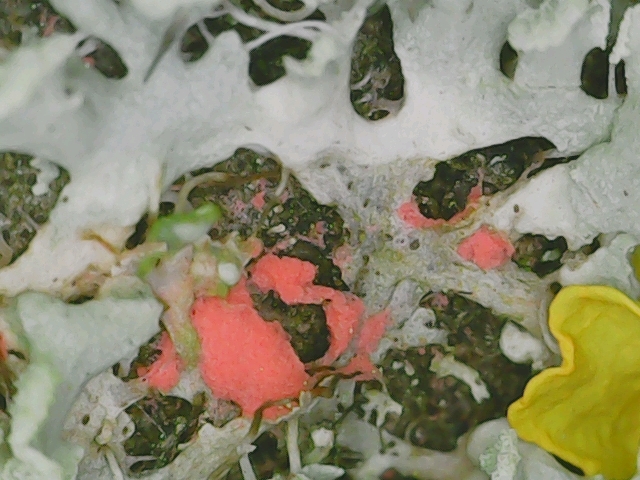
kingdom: Fungi
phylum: Ascomycota
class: Sordariomycetes
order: Hypocreales
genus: Illosporiopsis
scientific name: Illosporiopsis christiansenii
